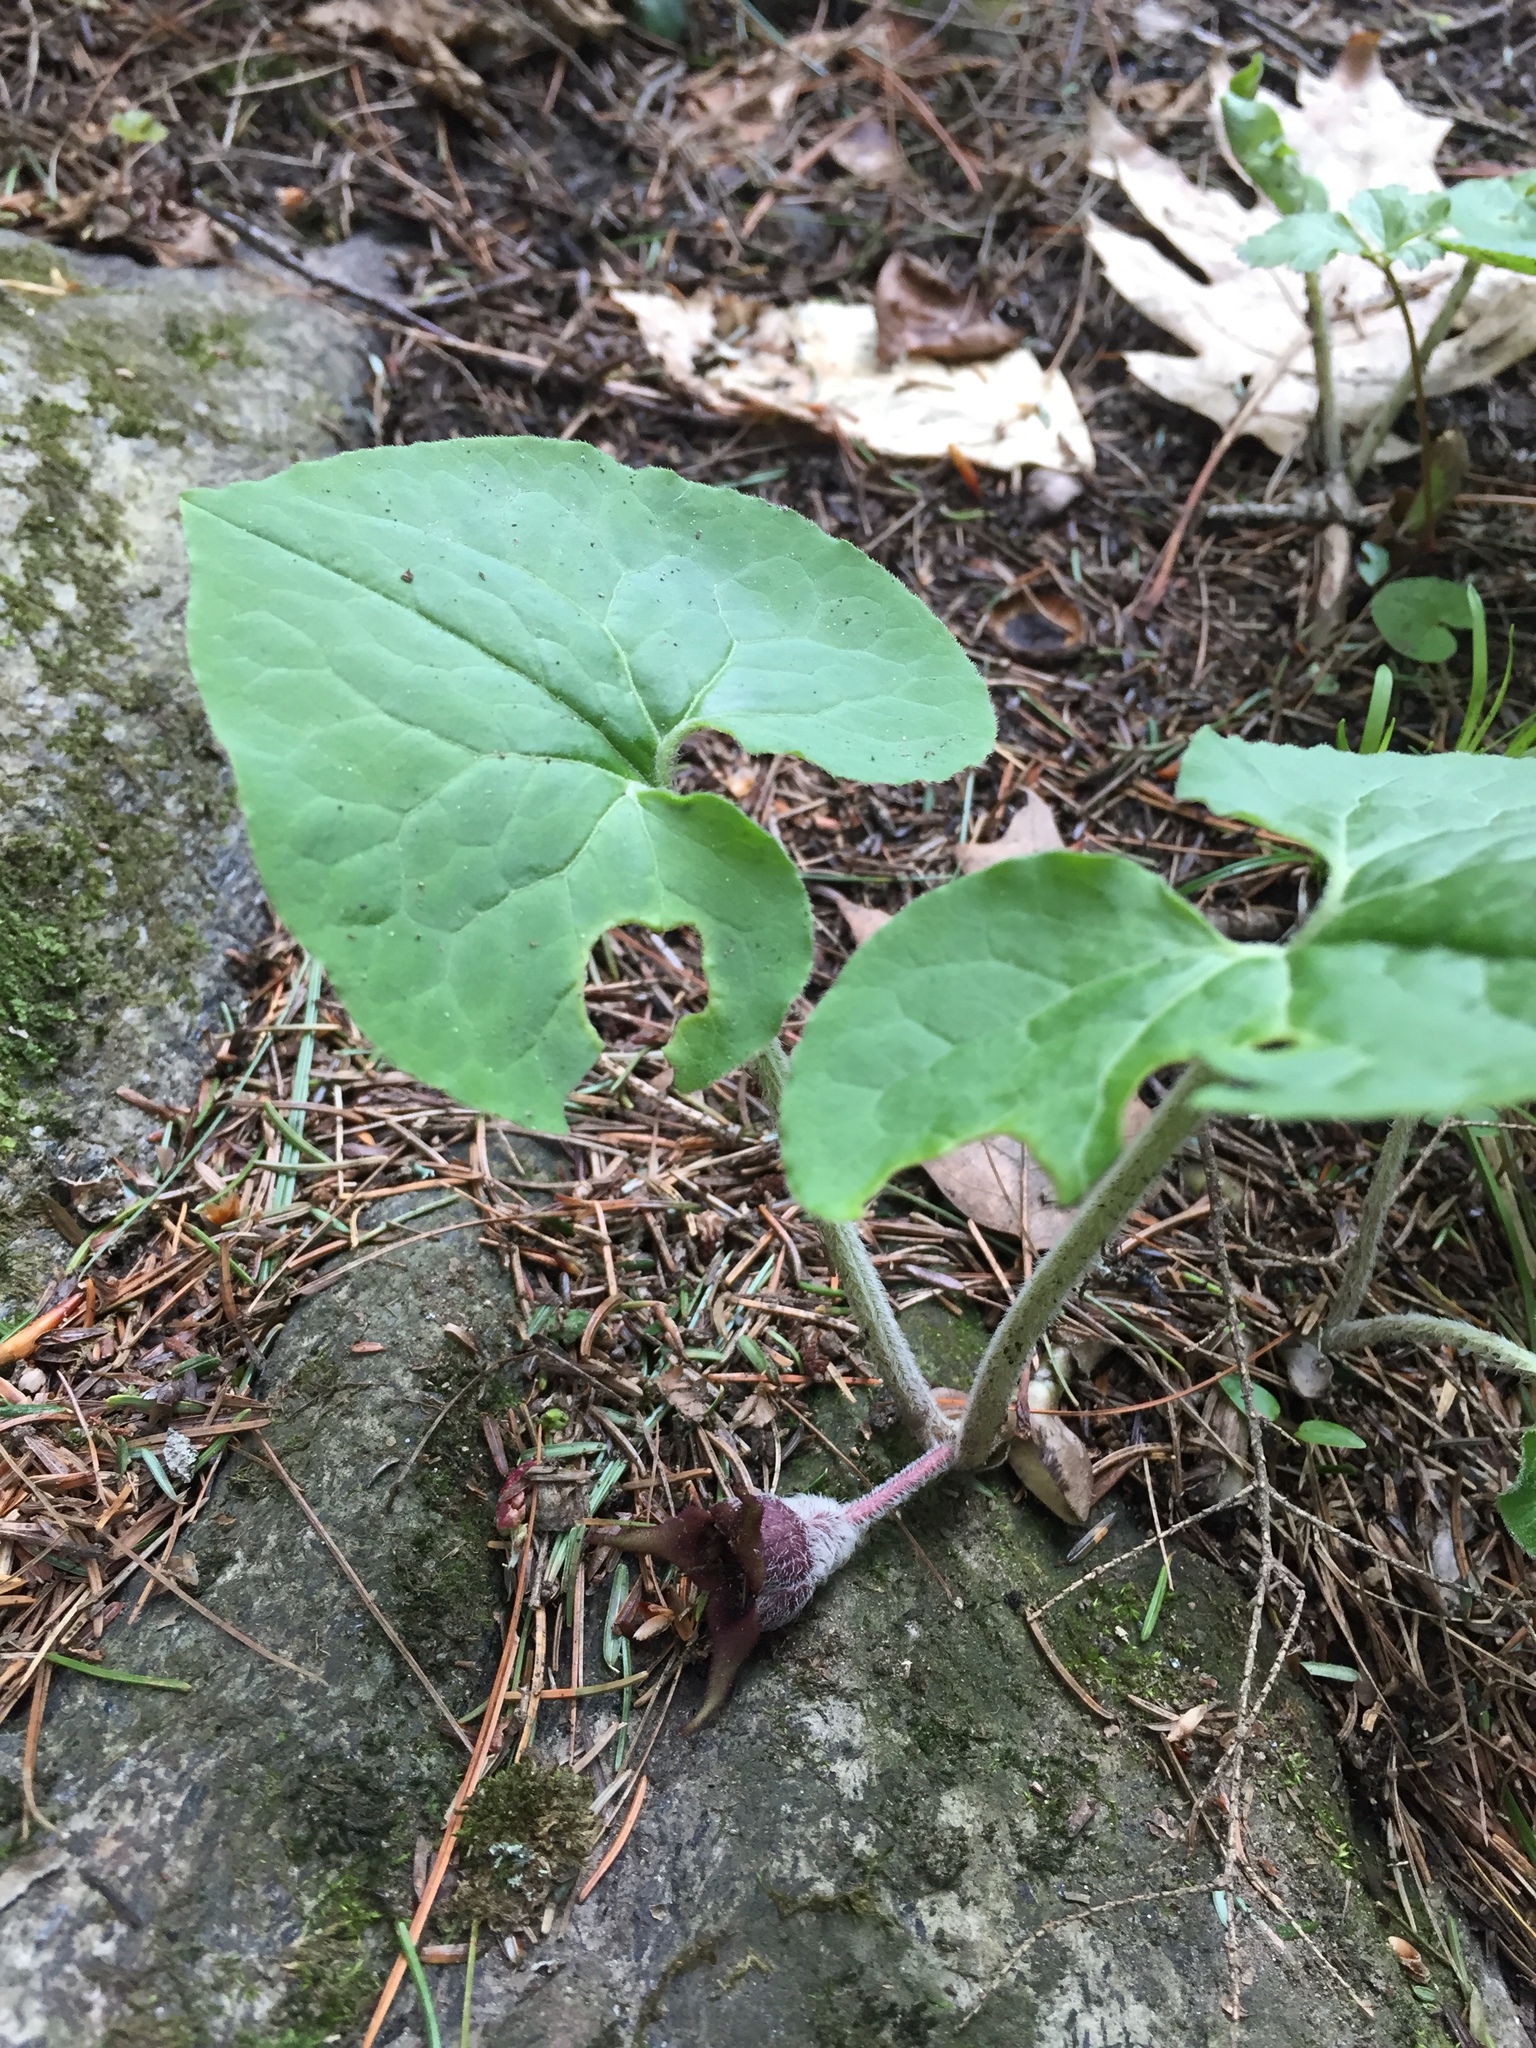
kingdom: Plantae
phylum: Tracheophyta
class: Magnoliopsida
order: Piperales
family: Aristolochiaceae
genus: Asarum
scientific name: Asarum canadense
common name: Wild ginger
